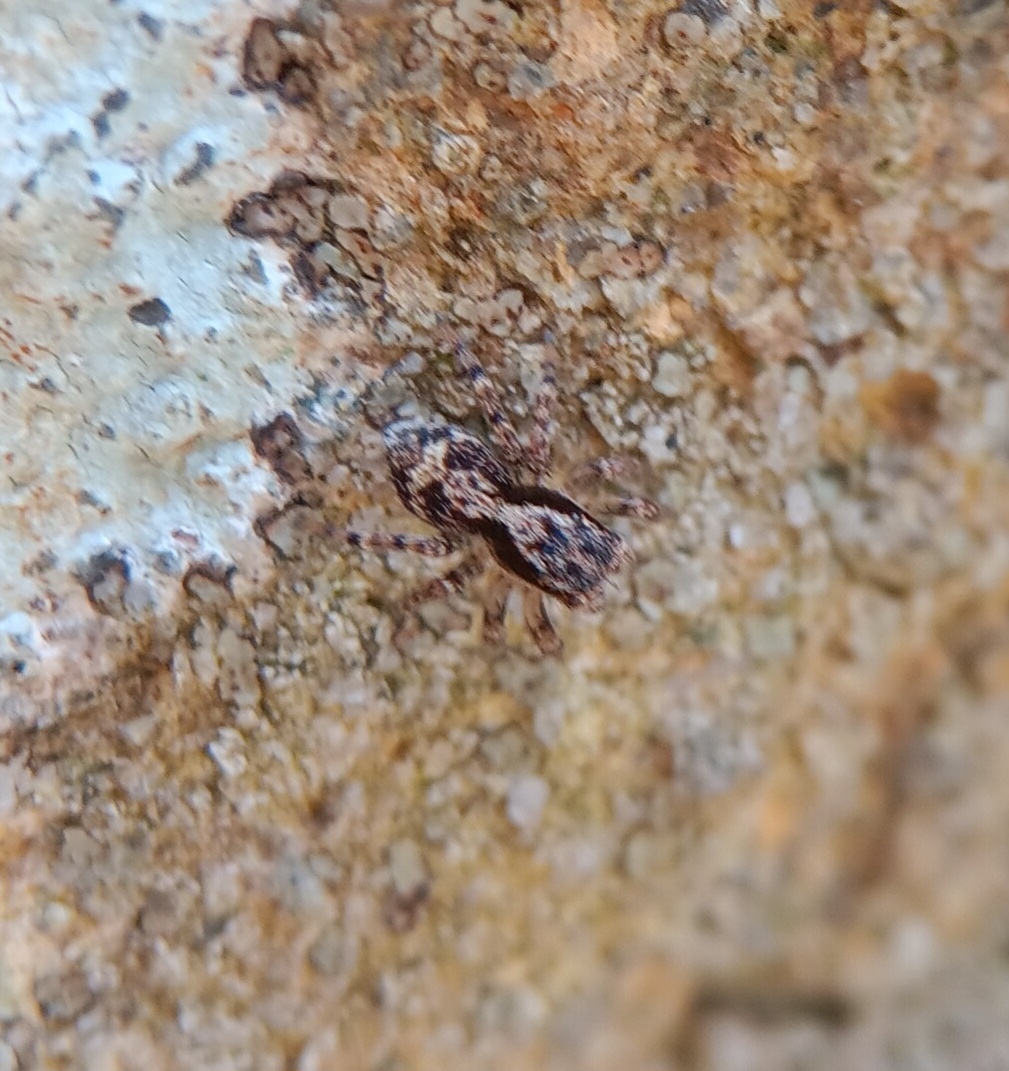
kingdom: Animalia
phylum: Arthropoda
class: Arachnida
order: Araneae
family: Salticidae
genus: Naphrys
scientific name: Naphrys pulex
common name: Flea jumping spider
